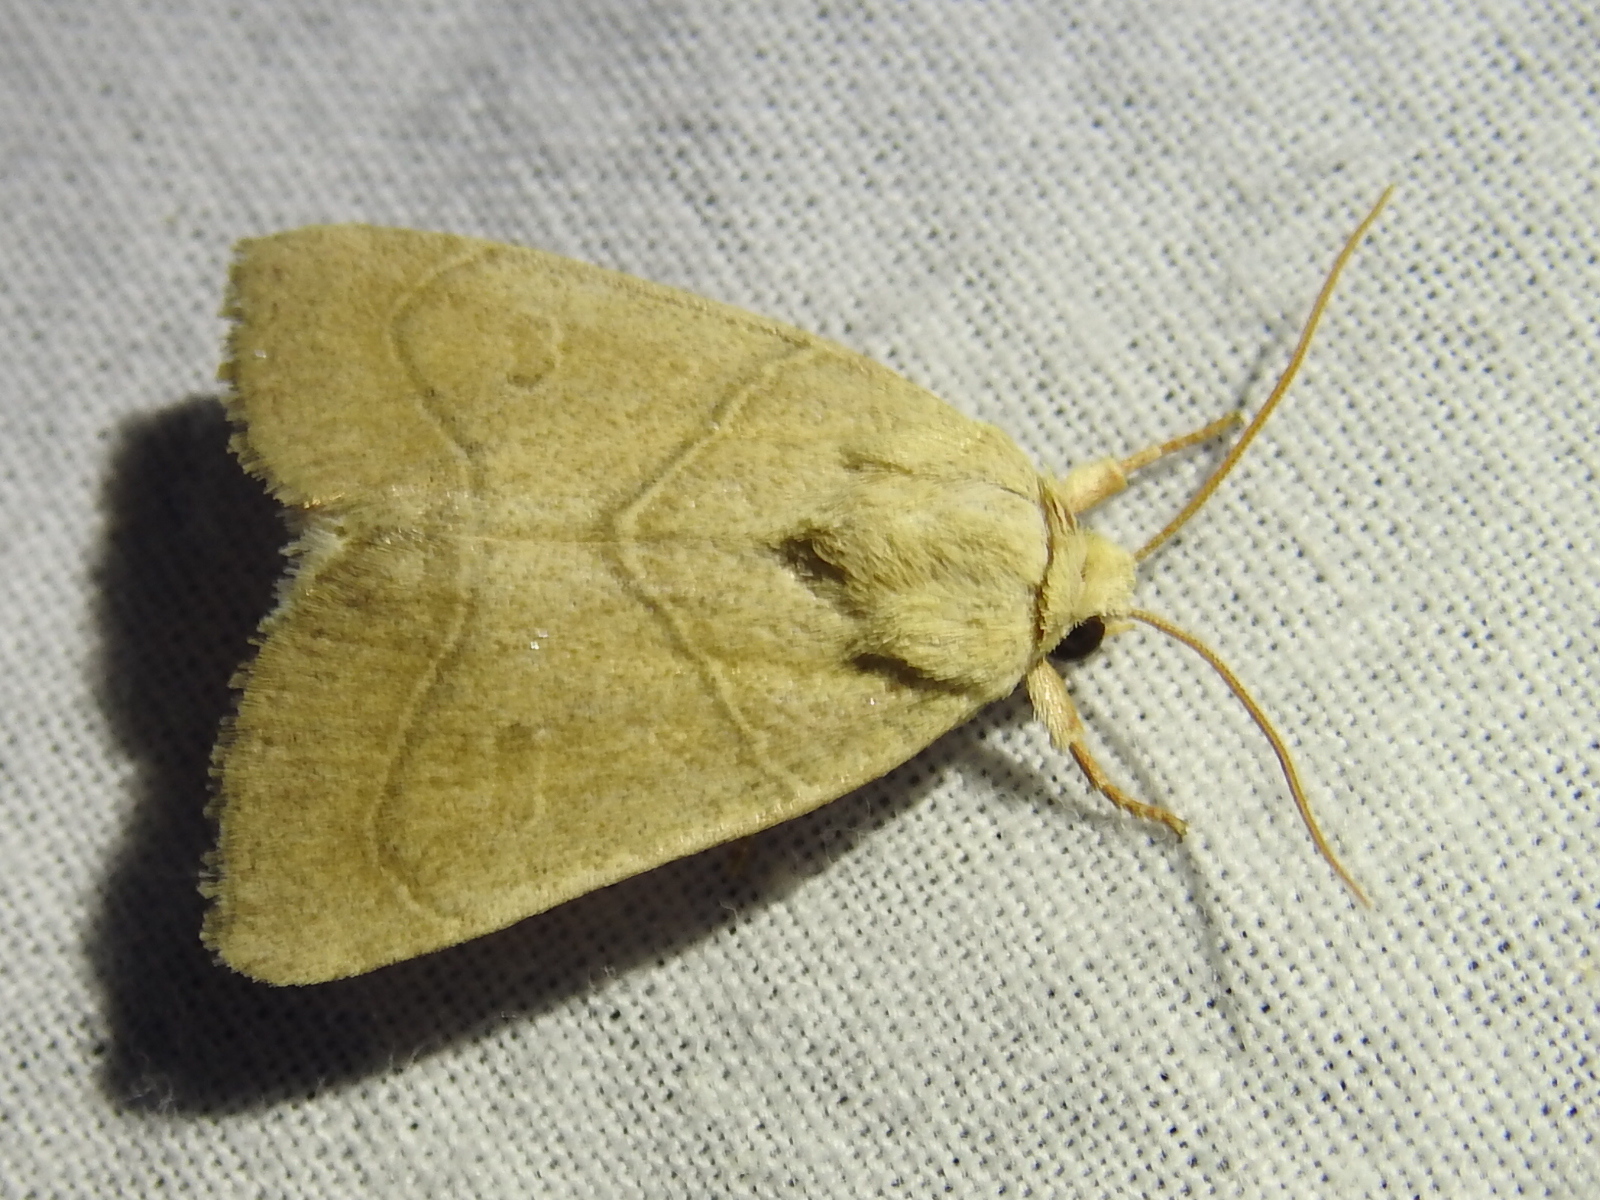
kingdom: Animalia
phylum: Arthropoda
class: Insecta
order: Lepidoptera
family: Noctuidae
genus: Cosmia
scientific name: Cosmia calami
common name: American dun-bar moth
